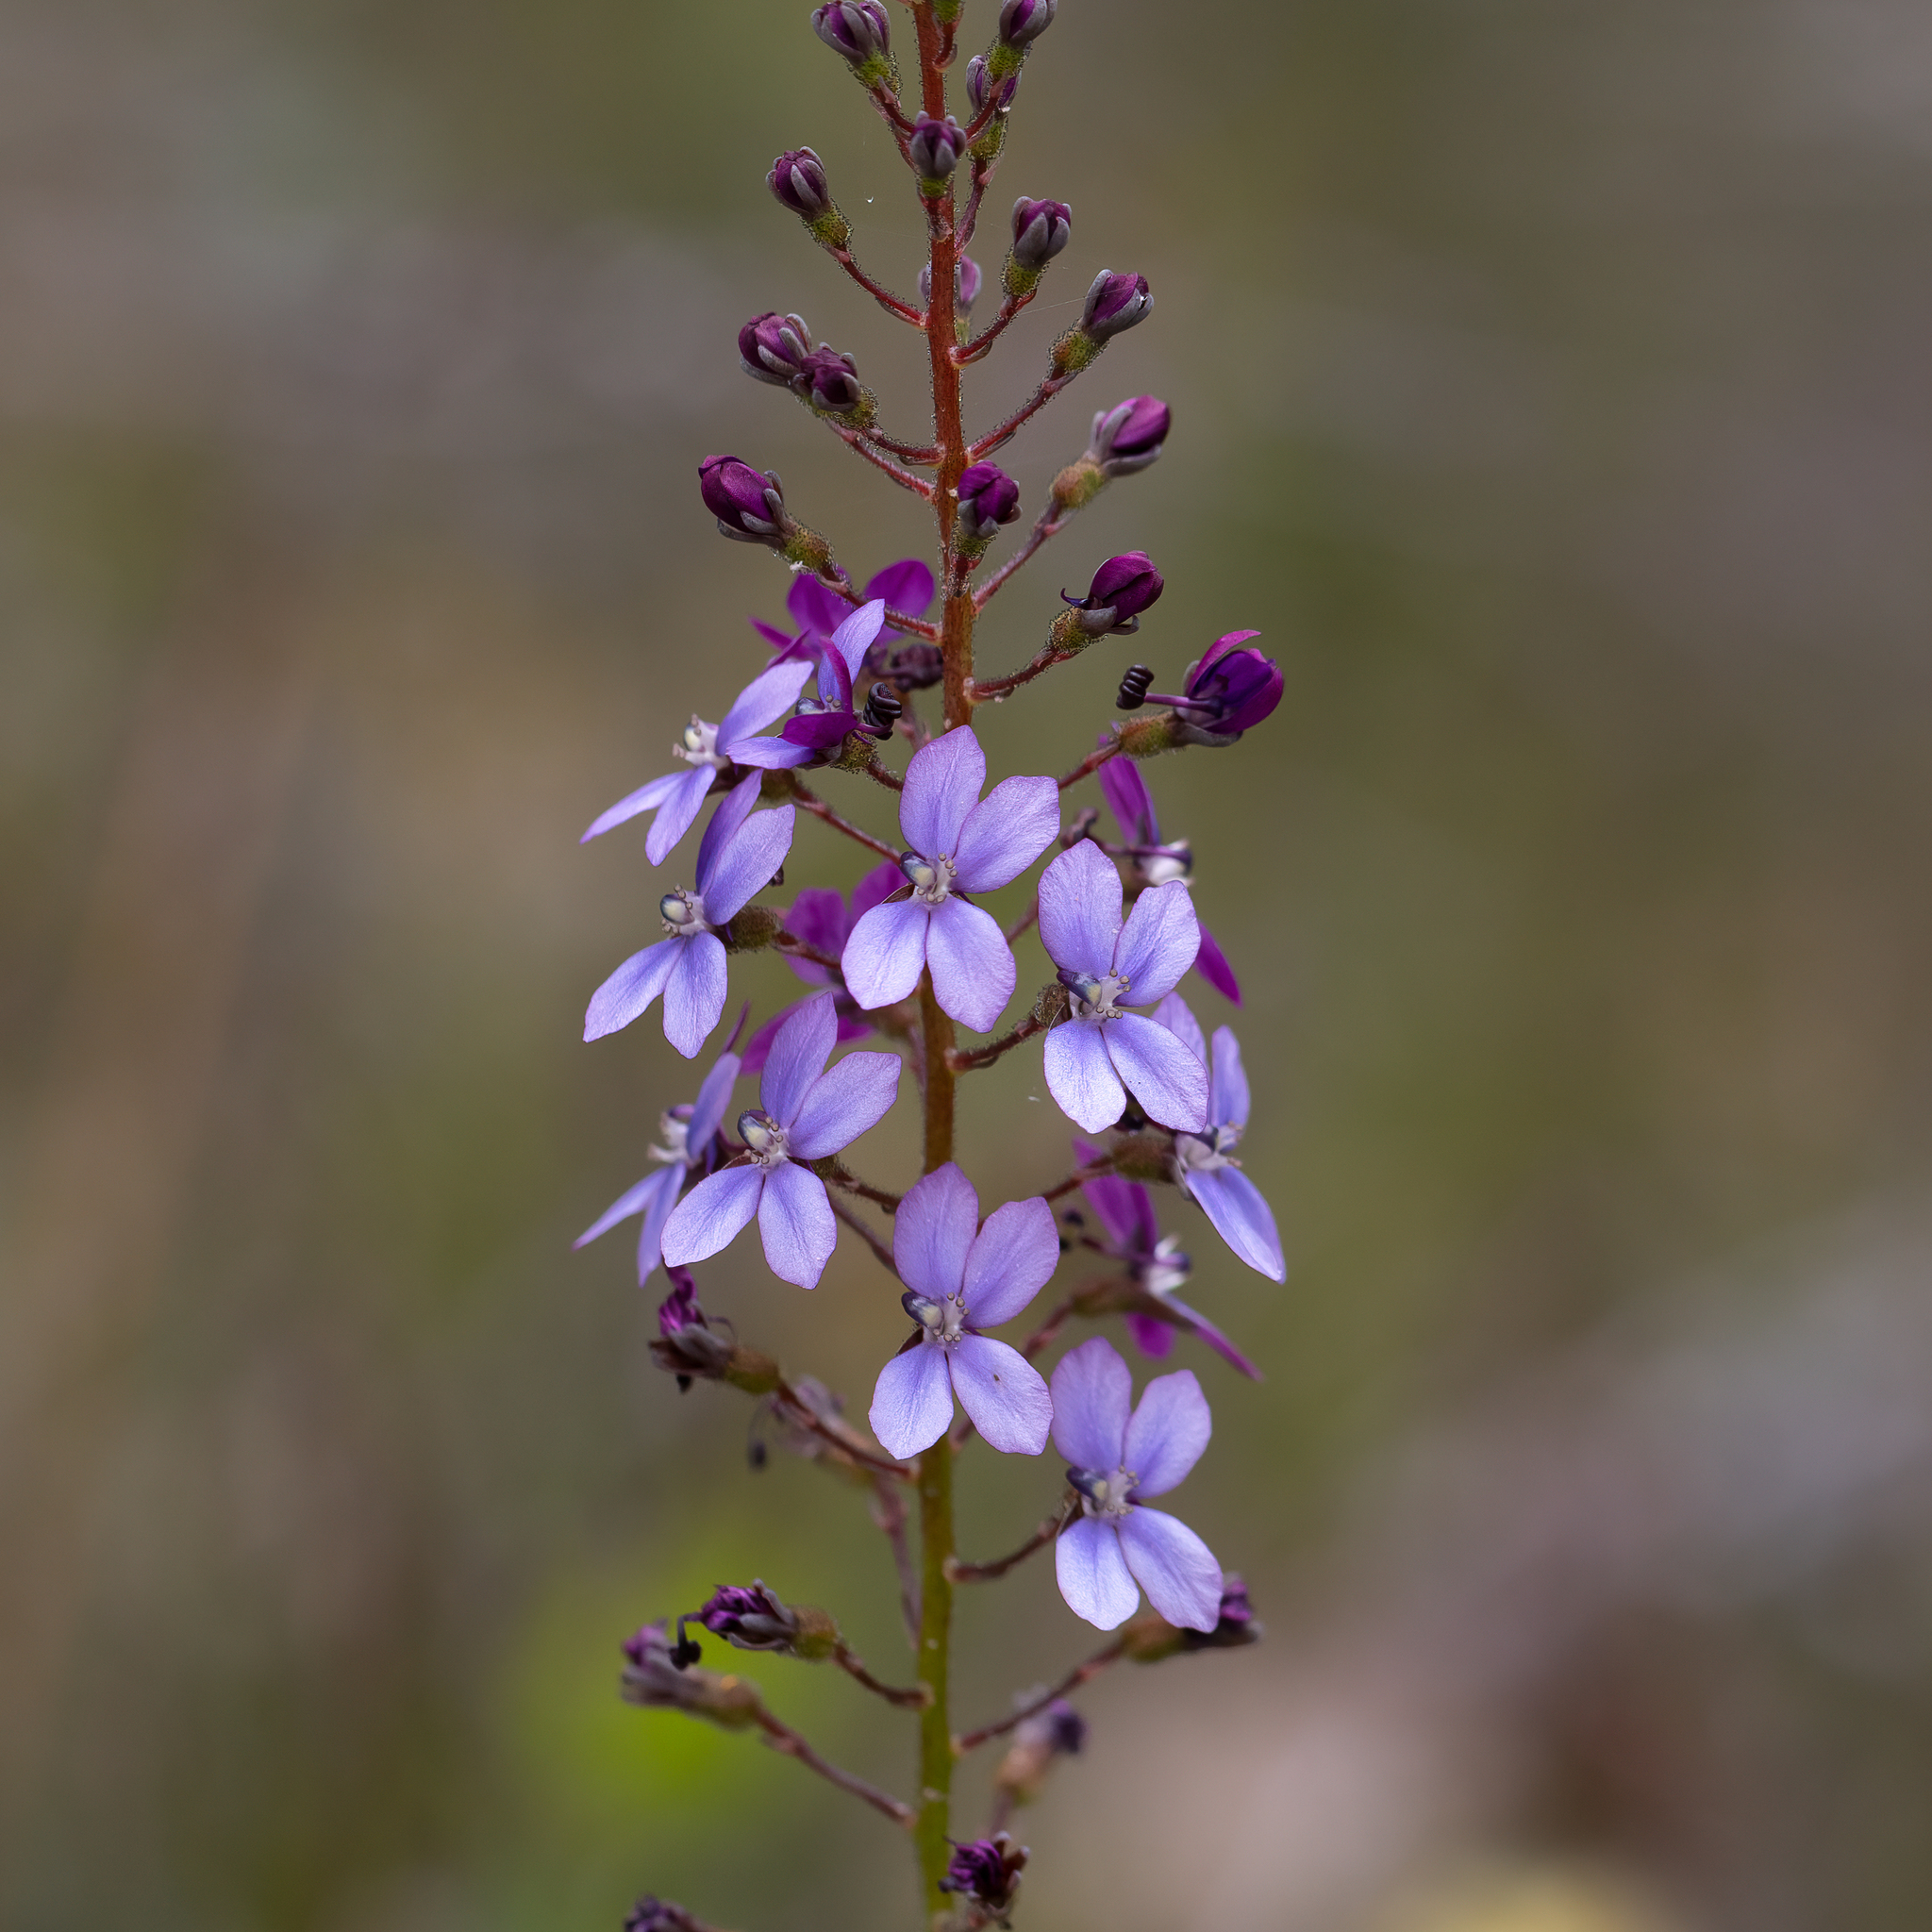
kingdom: Plantae
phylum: Tracheophyta
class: Magnoliopsida
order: Asterales
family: Stylidiaceae
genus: Stylidium
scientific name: Stylidium amoenum
